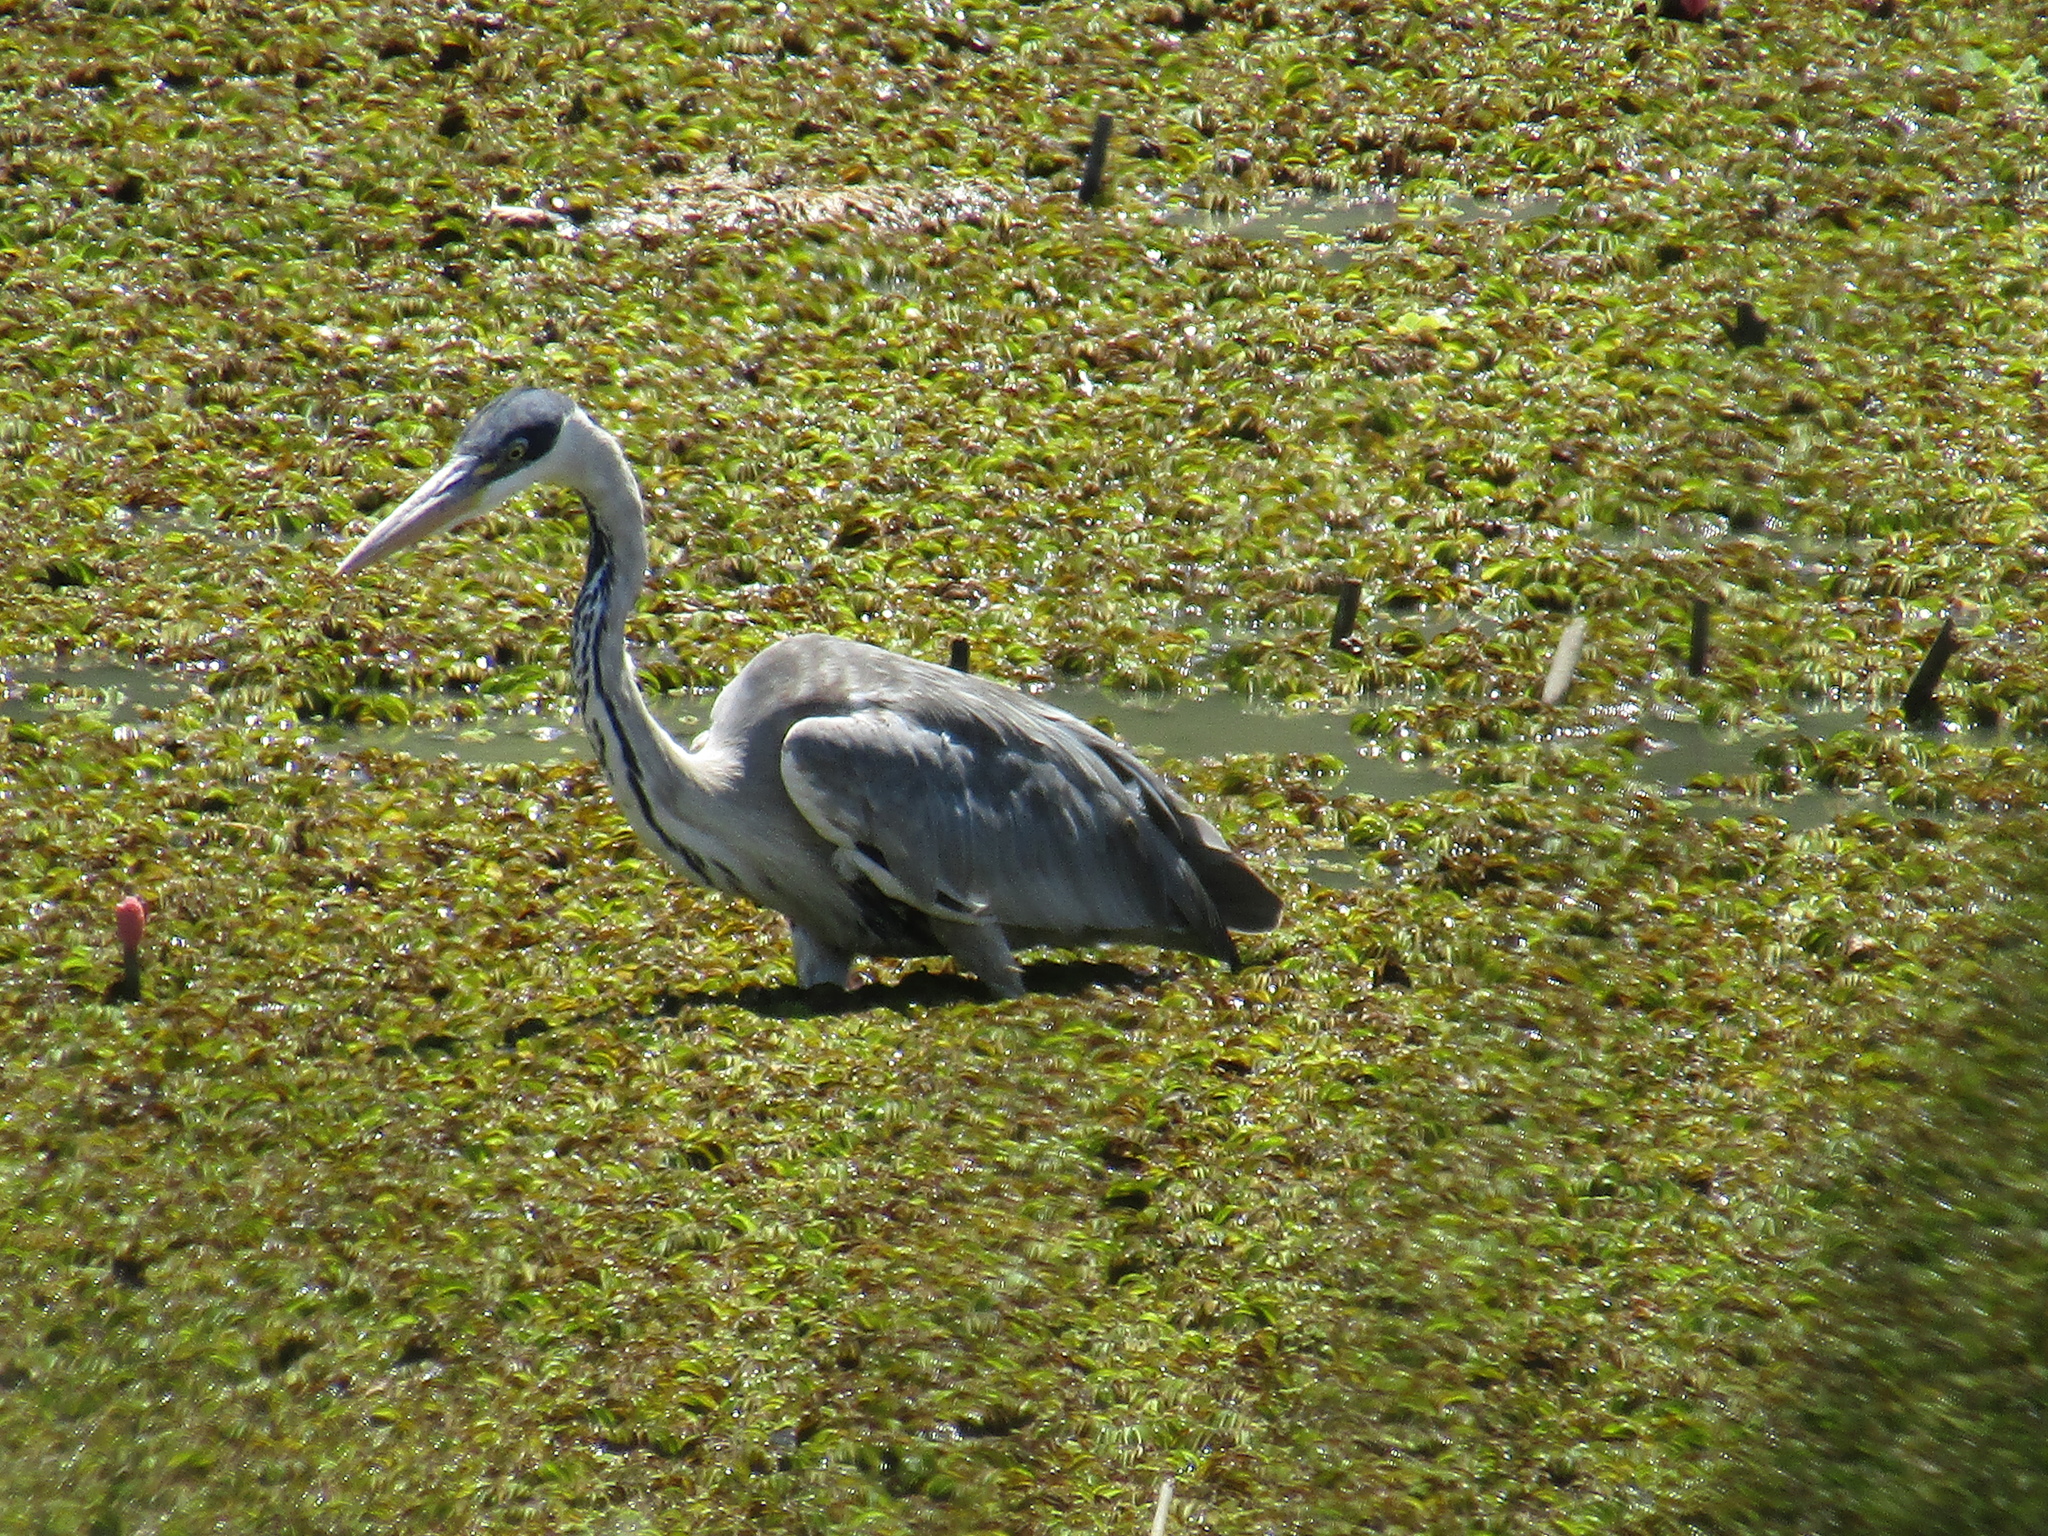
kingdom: Animalia
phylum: Chordata
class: Aves
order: Pelecaniformes
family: Ardeidae
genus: Ardea
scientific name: Ardea cocoi
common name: Cocoi heron
